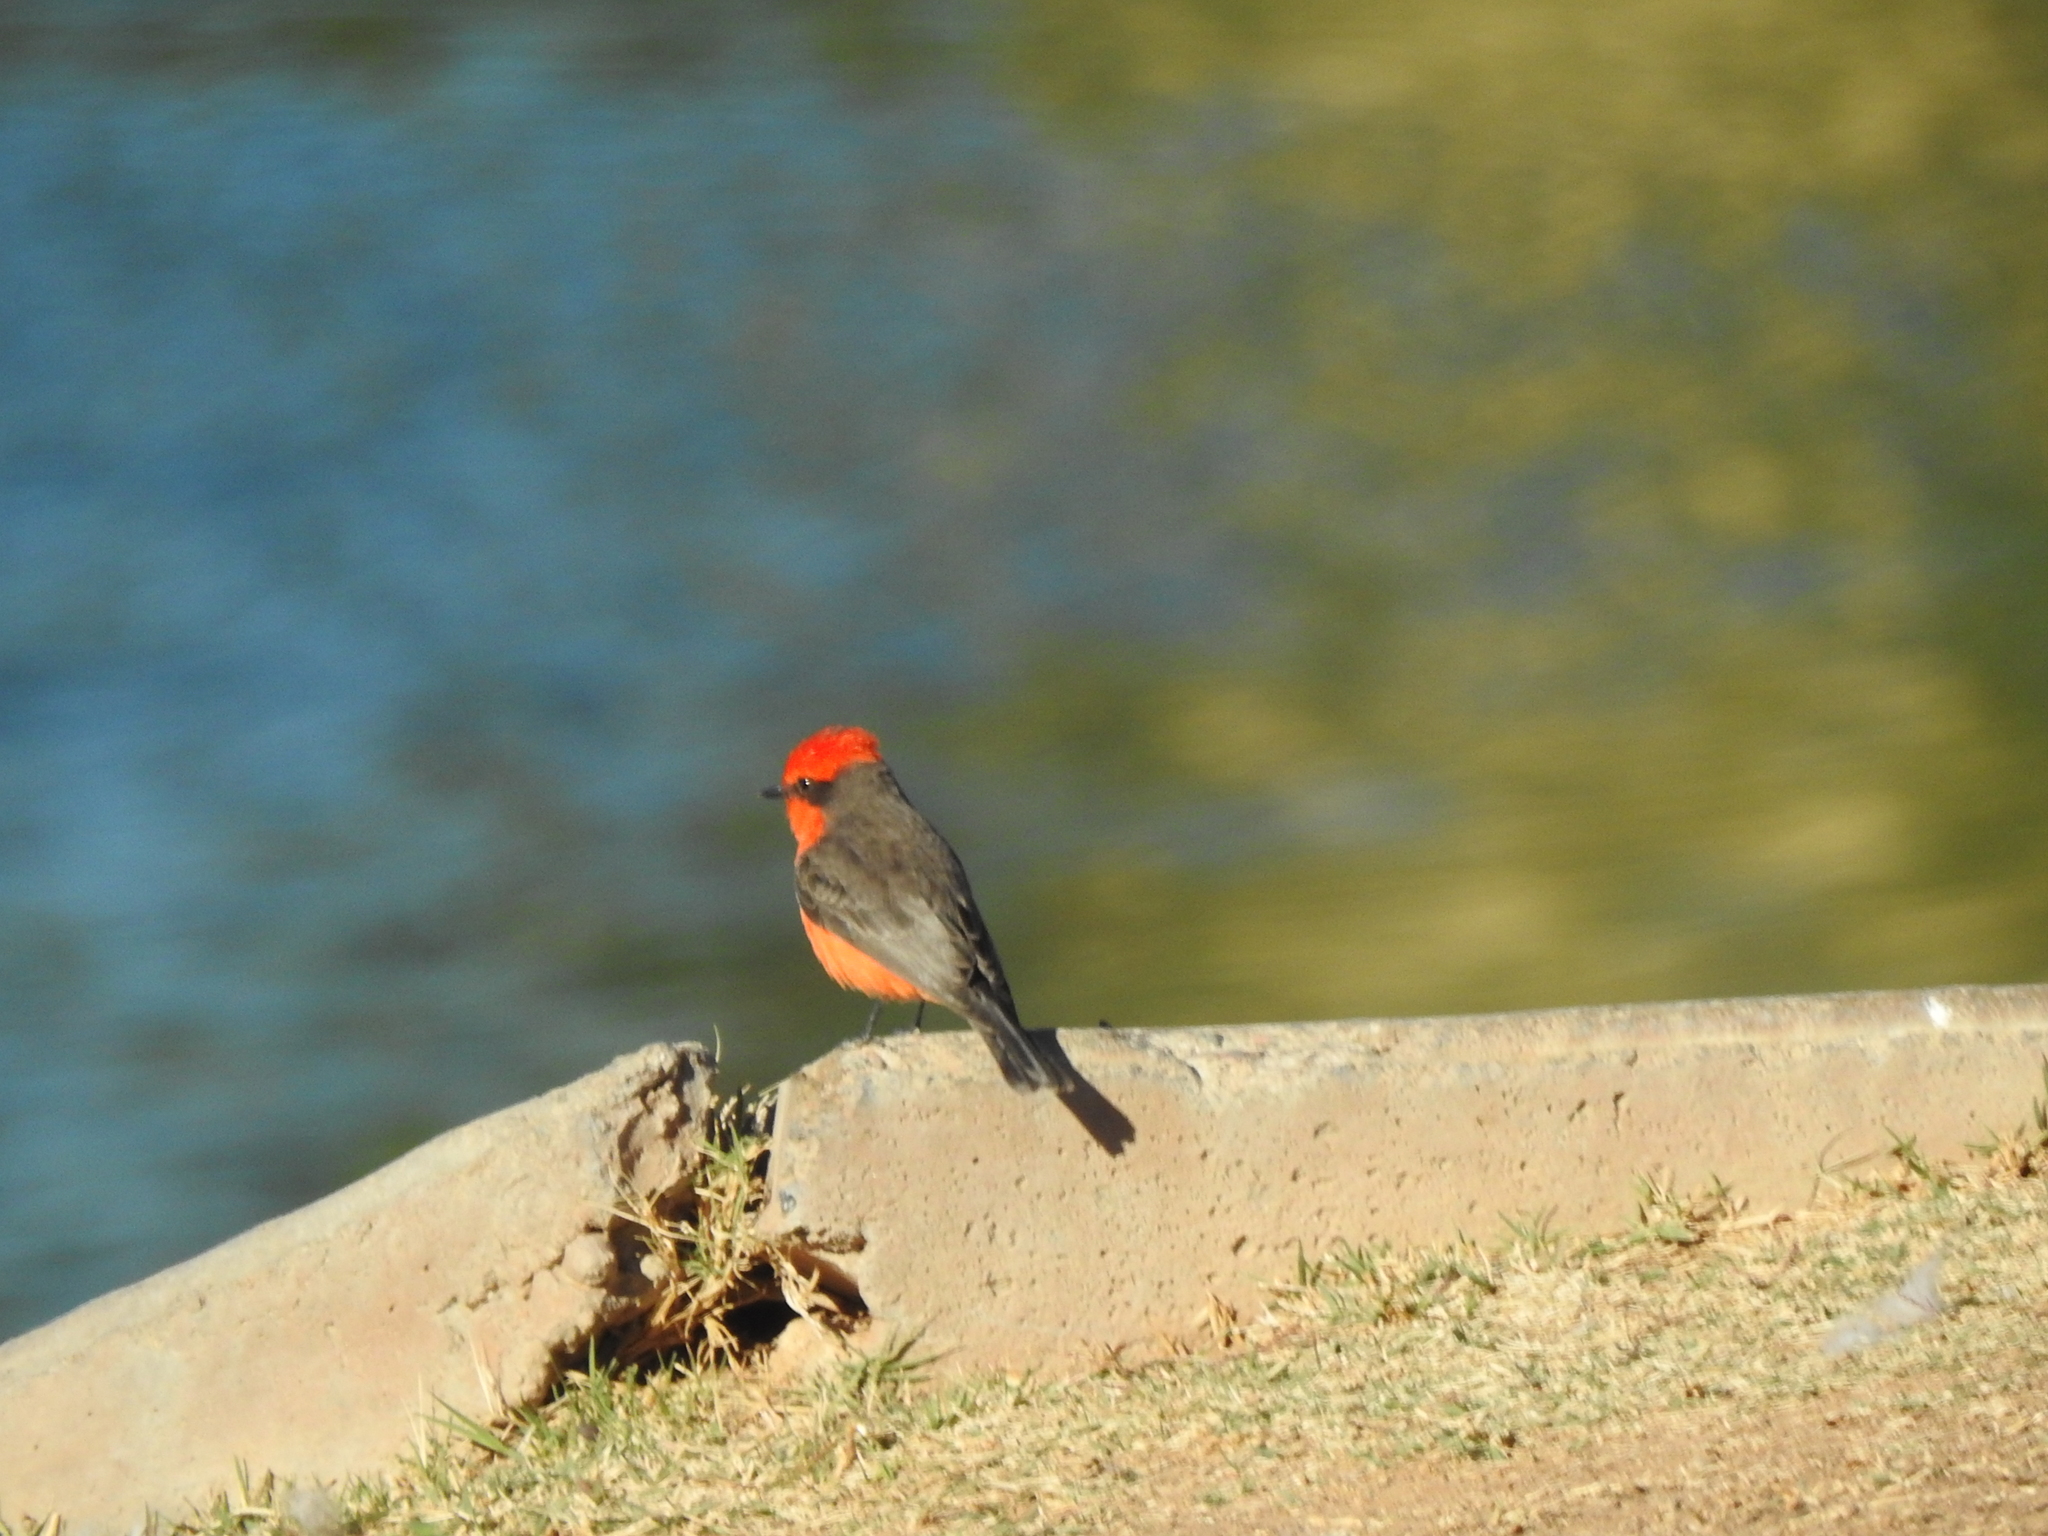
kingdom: Animalia
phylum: Chordata
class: Aves
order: Passeriformes
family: Tyrannidae
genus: Pyrocephalus
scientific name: Pyrocephalus rubinus
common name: Vermilion flycatcher
